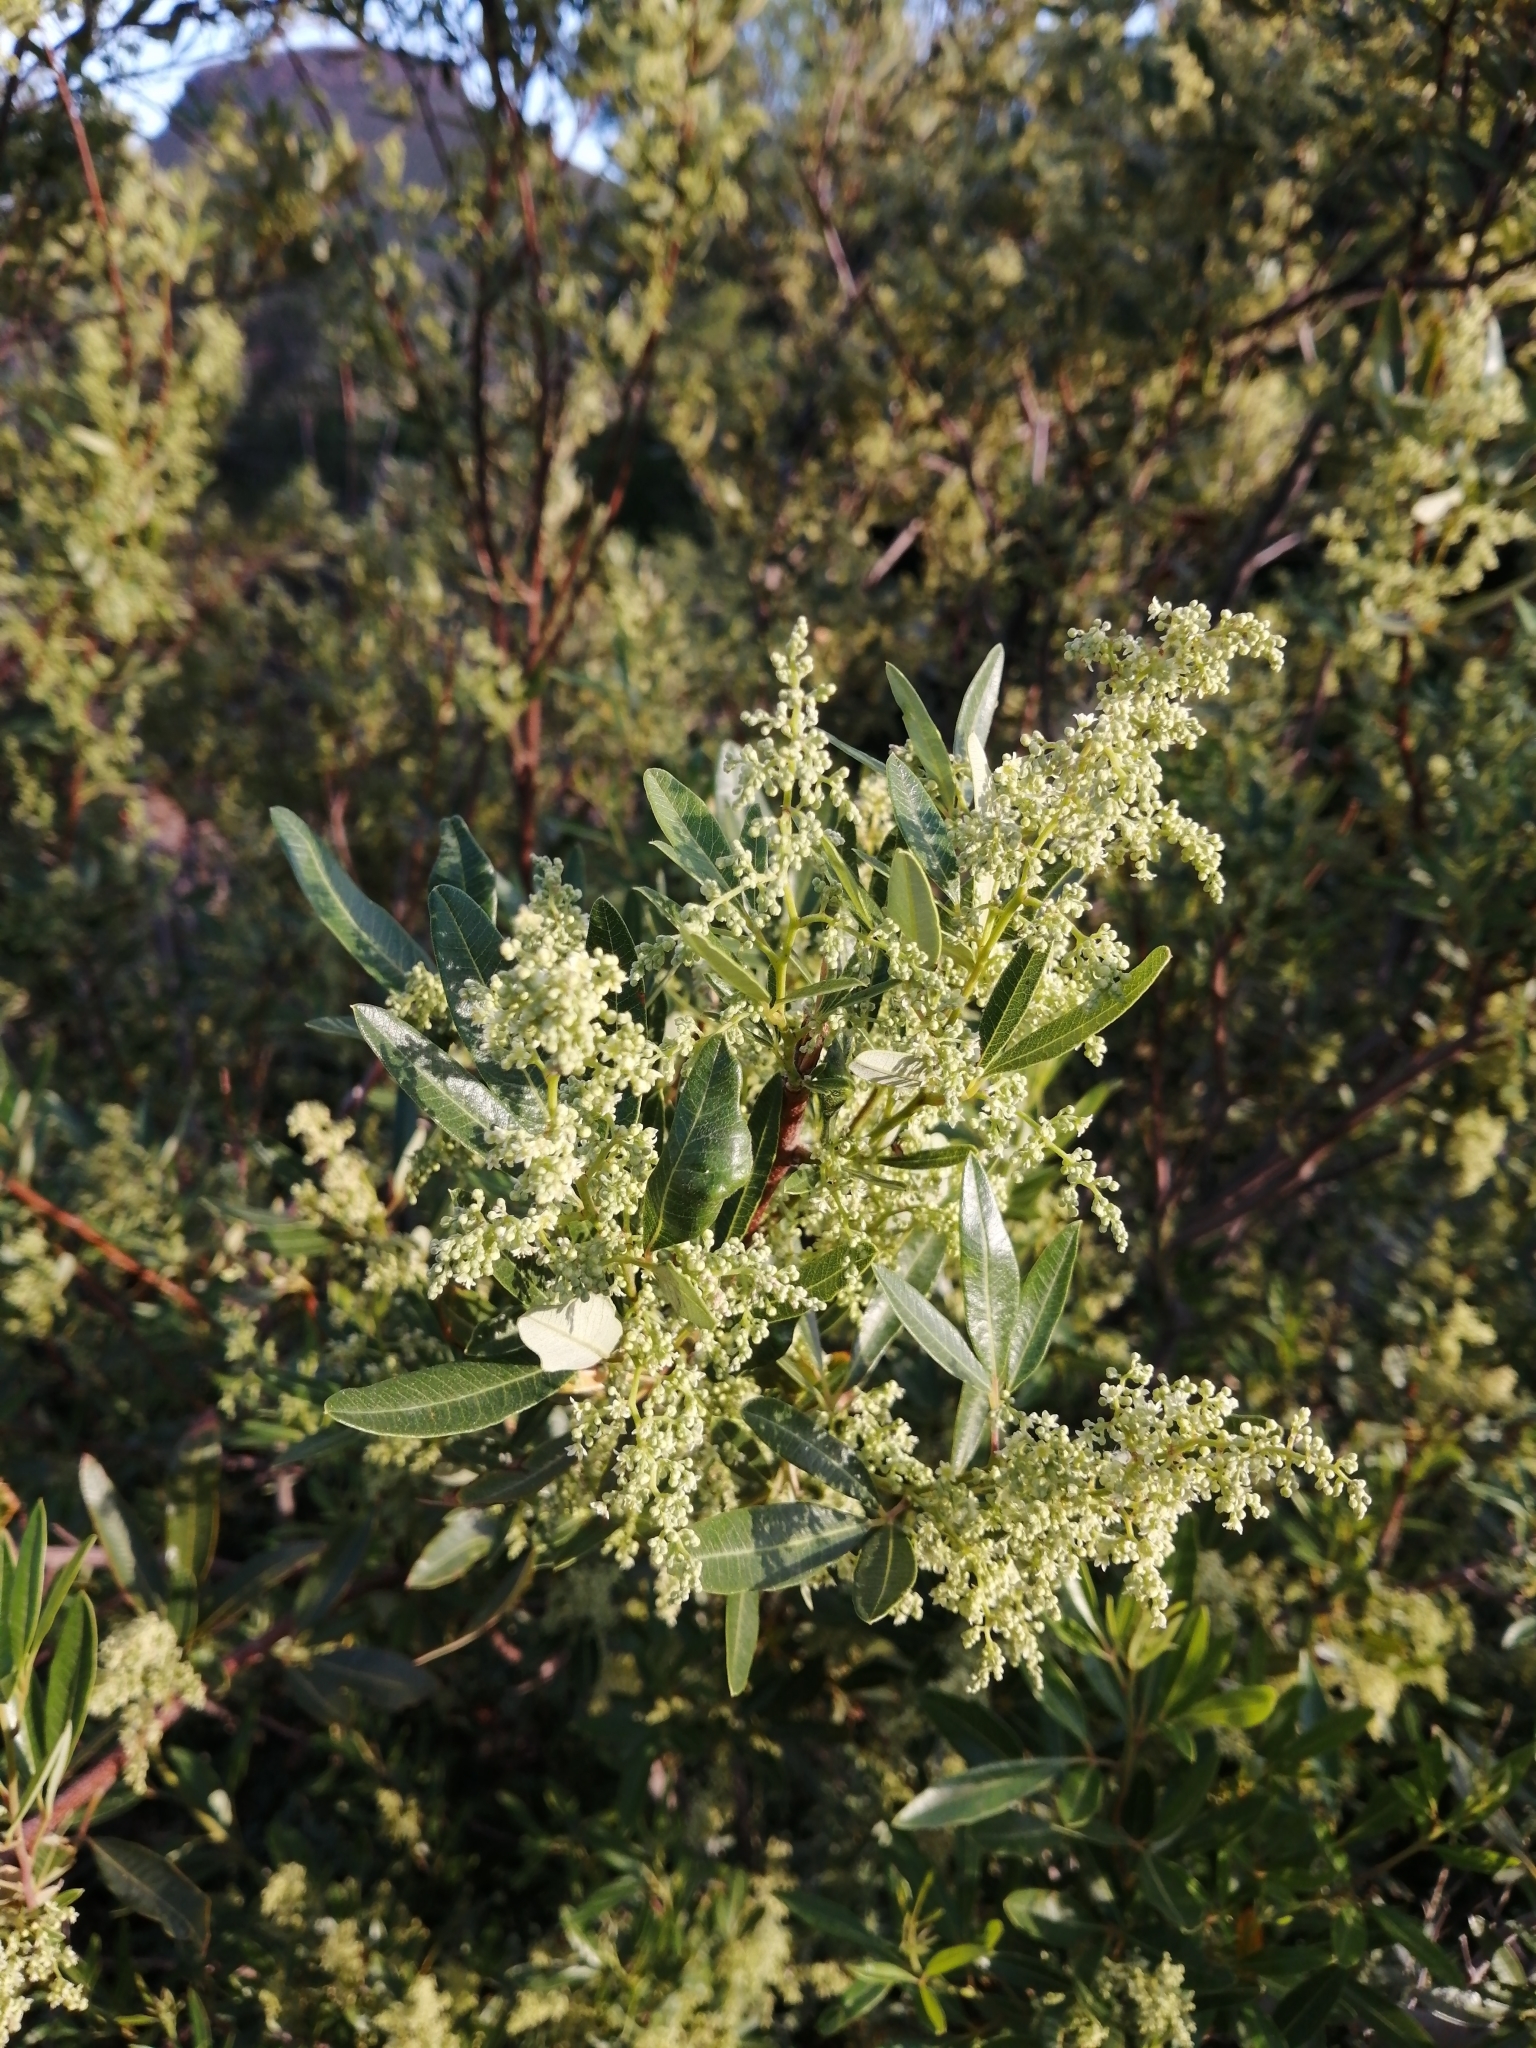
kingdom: Plantae
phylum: Tracheophyta
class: Magnoliopsida
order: Sapindales
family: Anacardiaceae
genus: Searsia
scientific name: Searsia angustifolia
